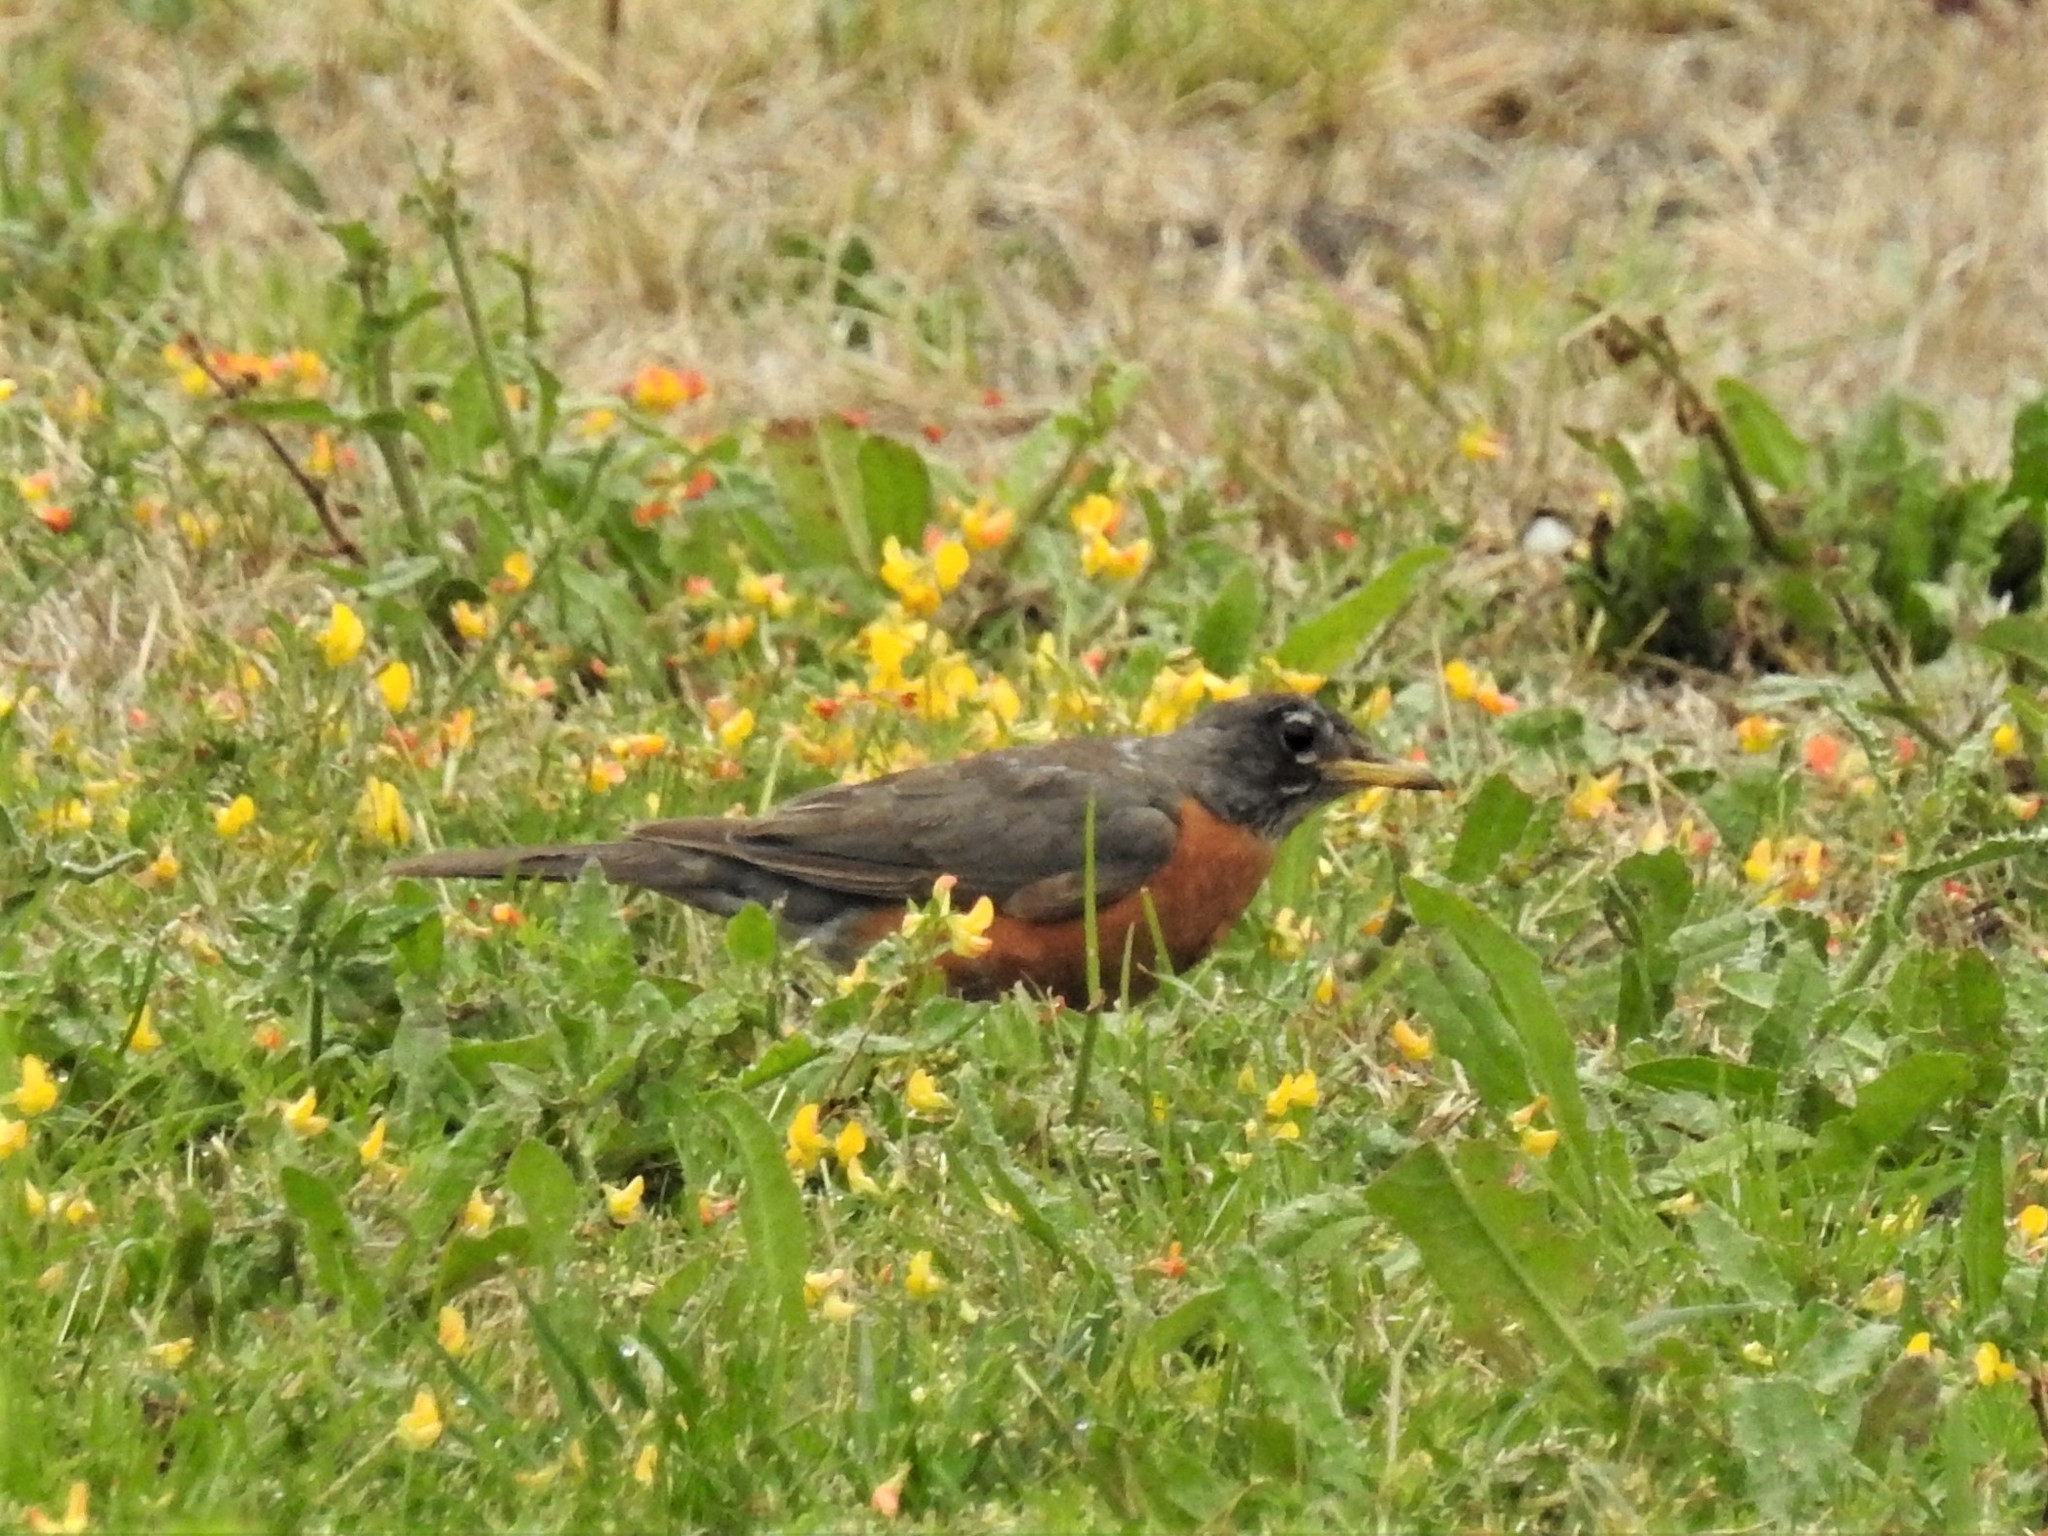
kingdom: Animalia
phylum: Chordata
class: Aves
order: Passeriformes
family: Turdidae
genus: Turdus
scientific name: Turdus migratorius
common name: American robin
